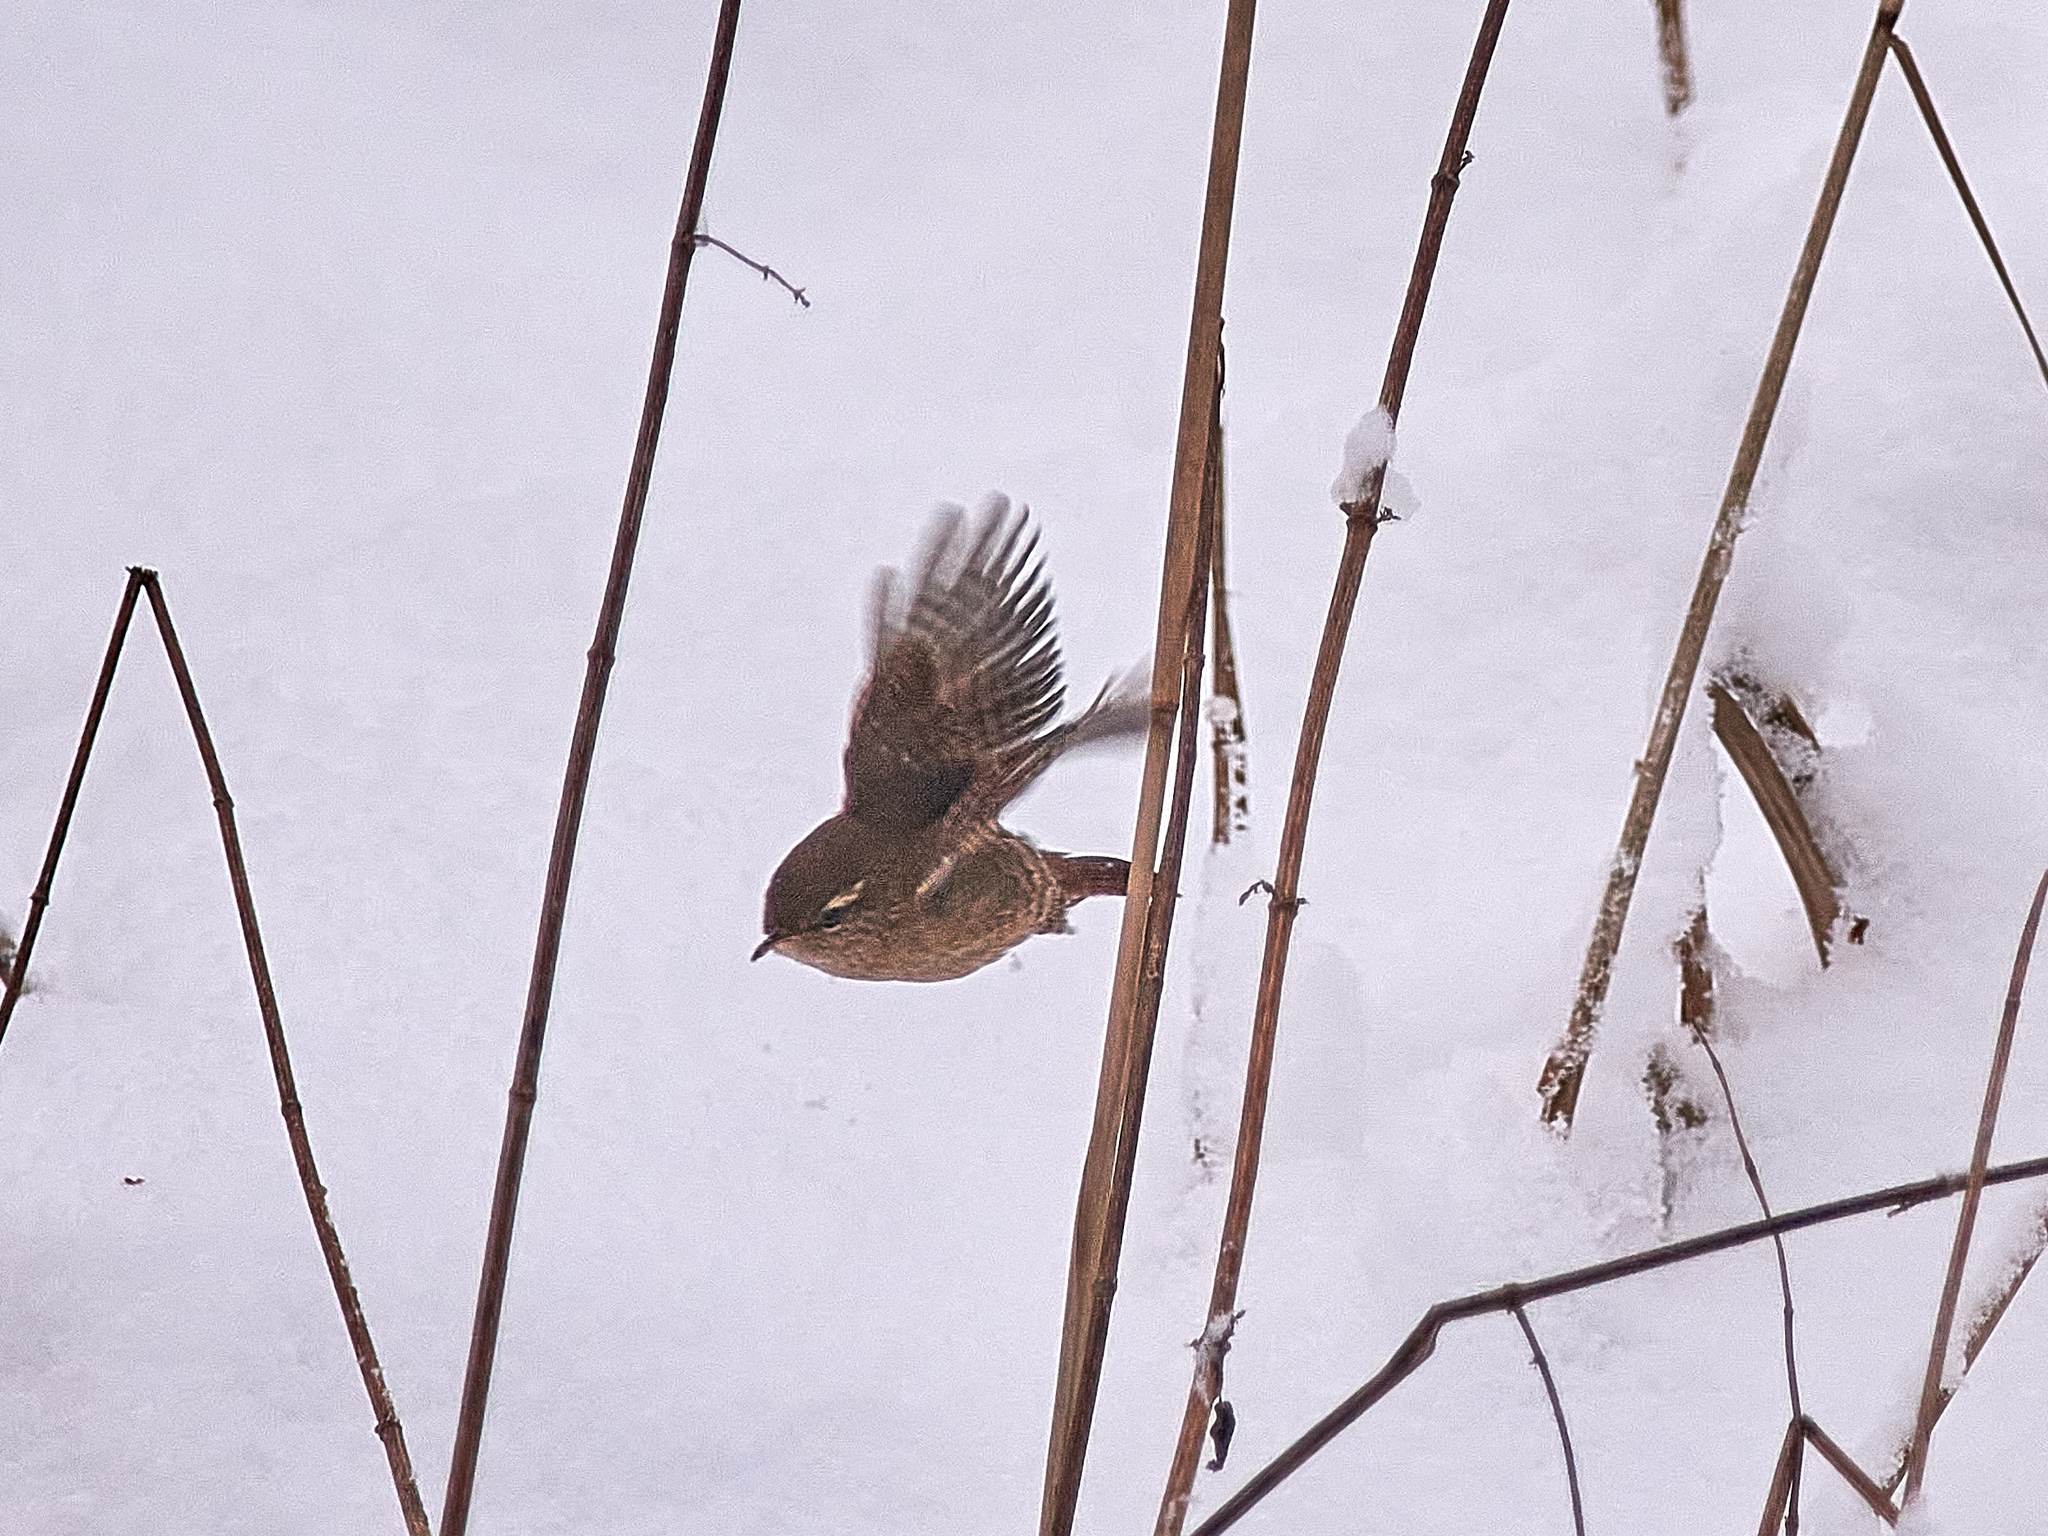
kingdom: Animalia
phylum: Chordata
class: Aves
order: Passeriformes
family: Troglodytidae
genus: Troglodytes
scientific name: Troglodytes troglodytes
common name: Eurasian wren
